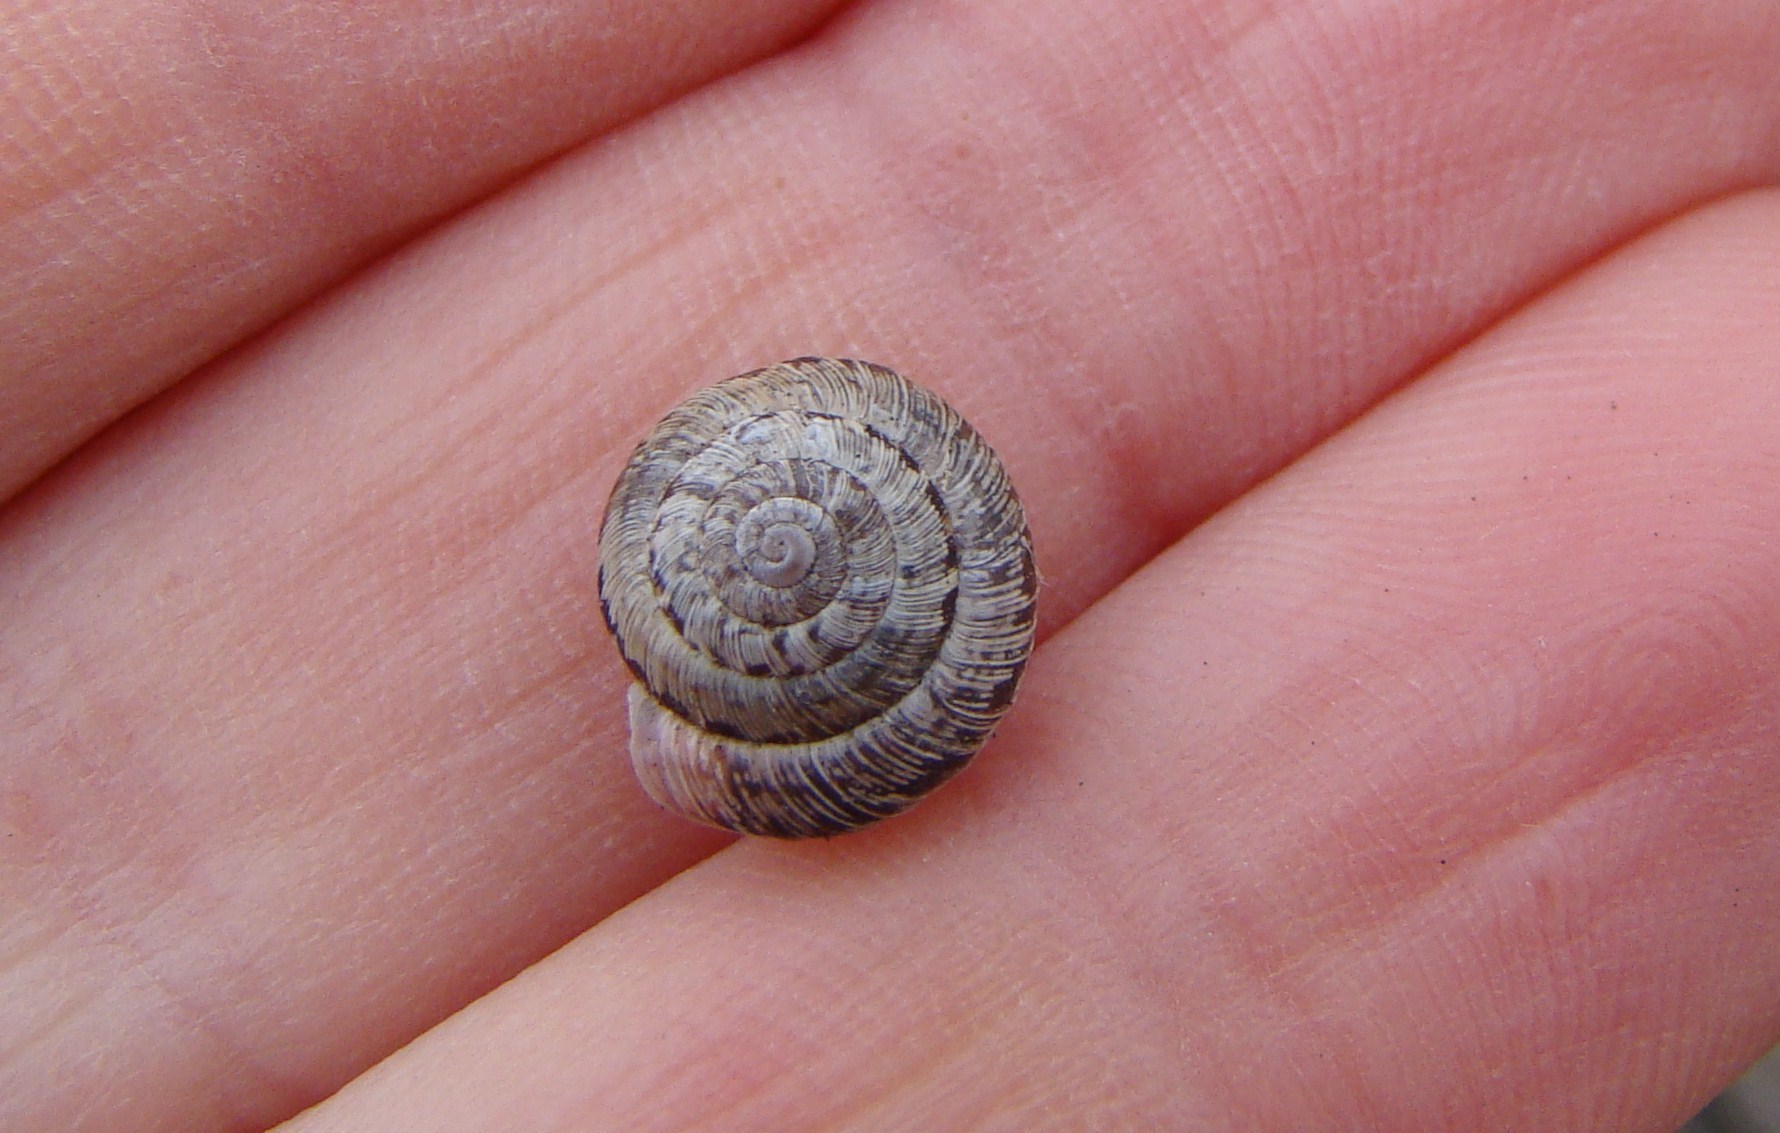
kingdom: Animalia
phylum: Mollusca
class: Gastropoda
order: Stylommatophora
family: Geomitridae
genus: Xeroplexa
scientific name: Xeroplexa intersecta
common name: Wrinkled snail
